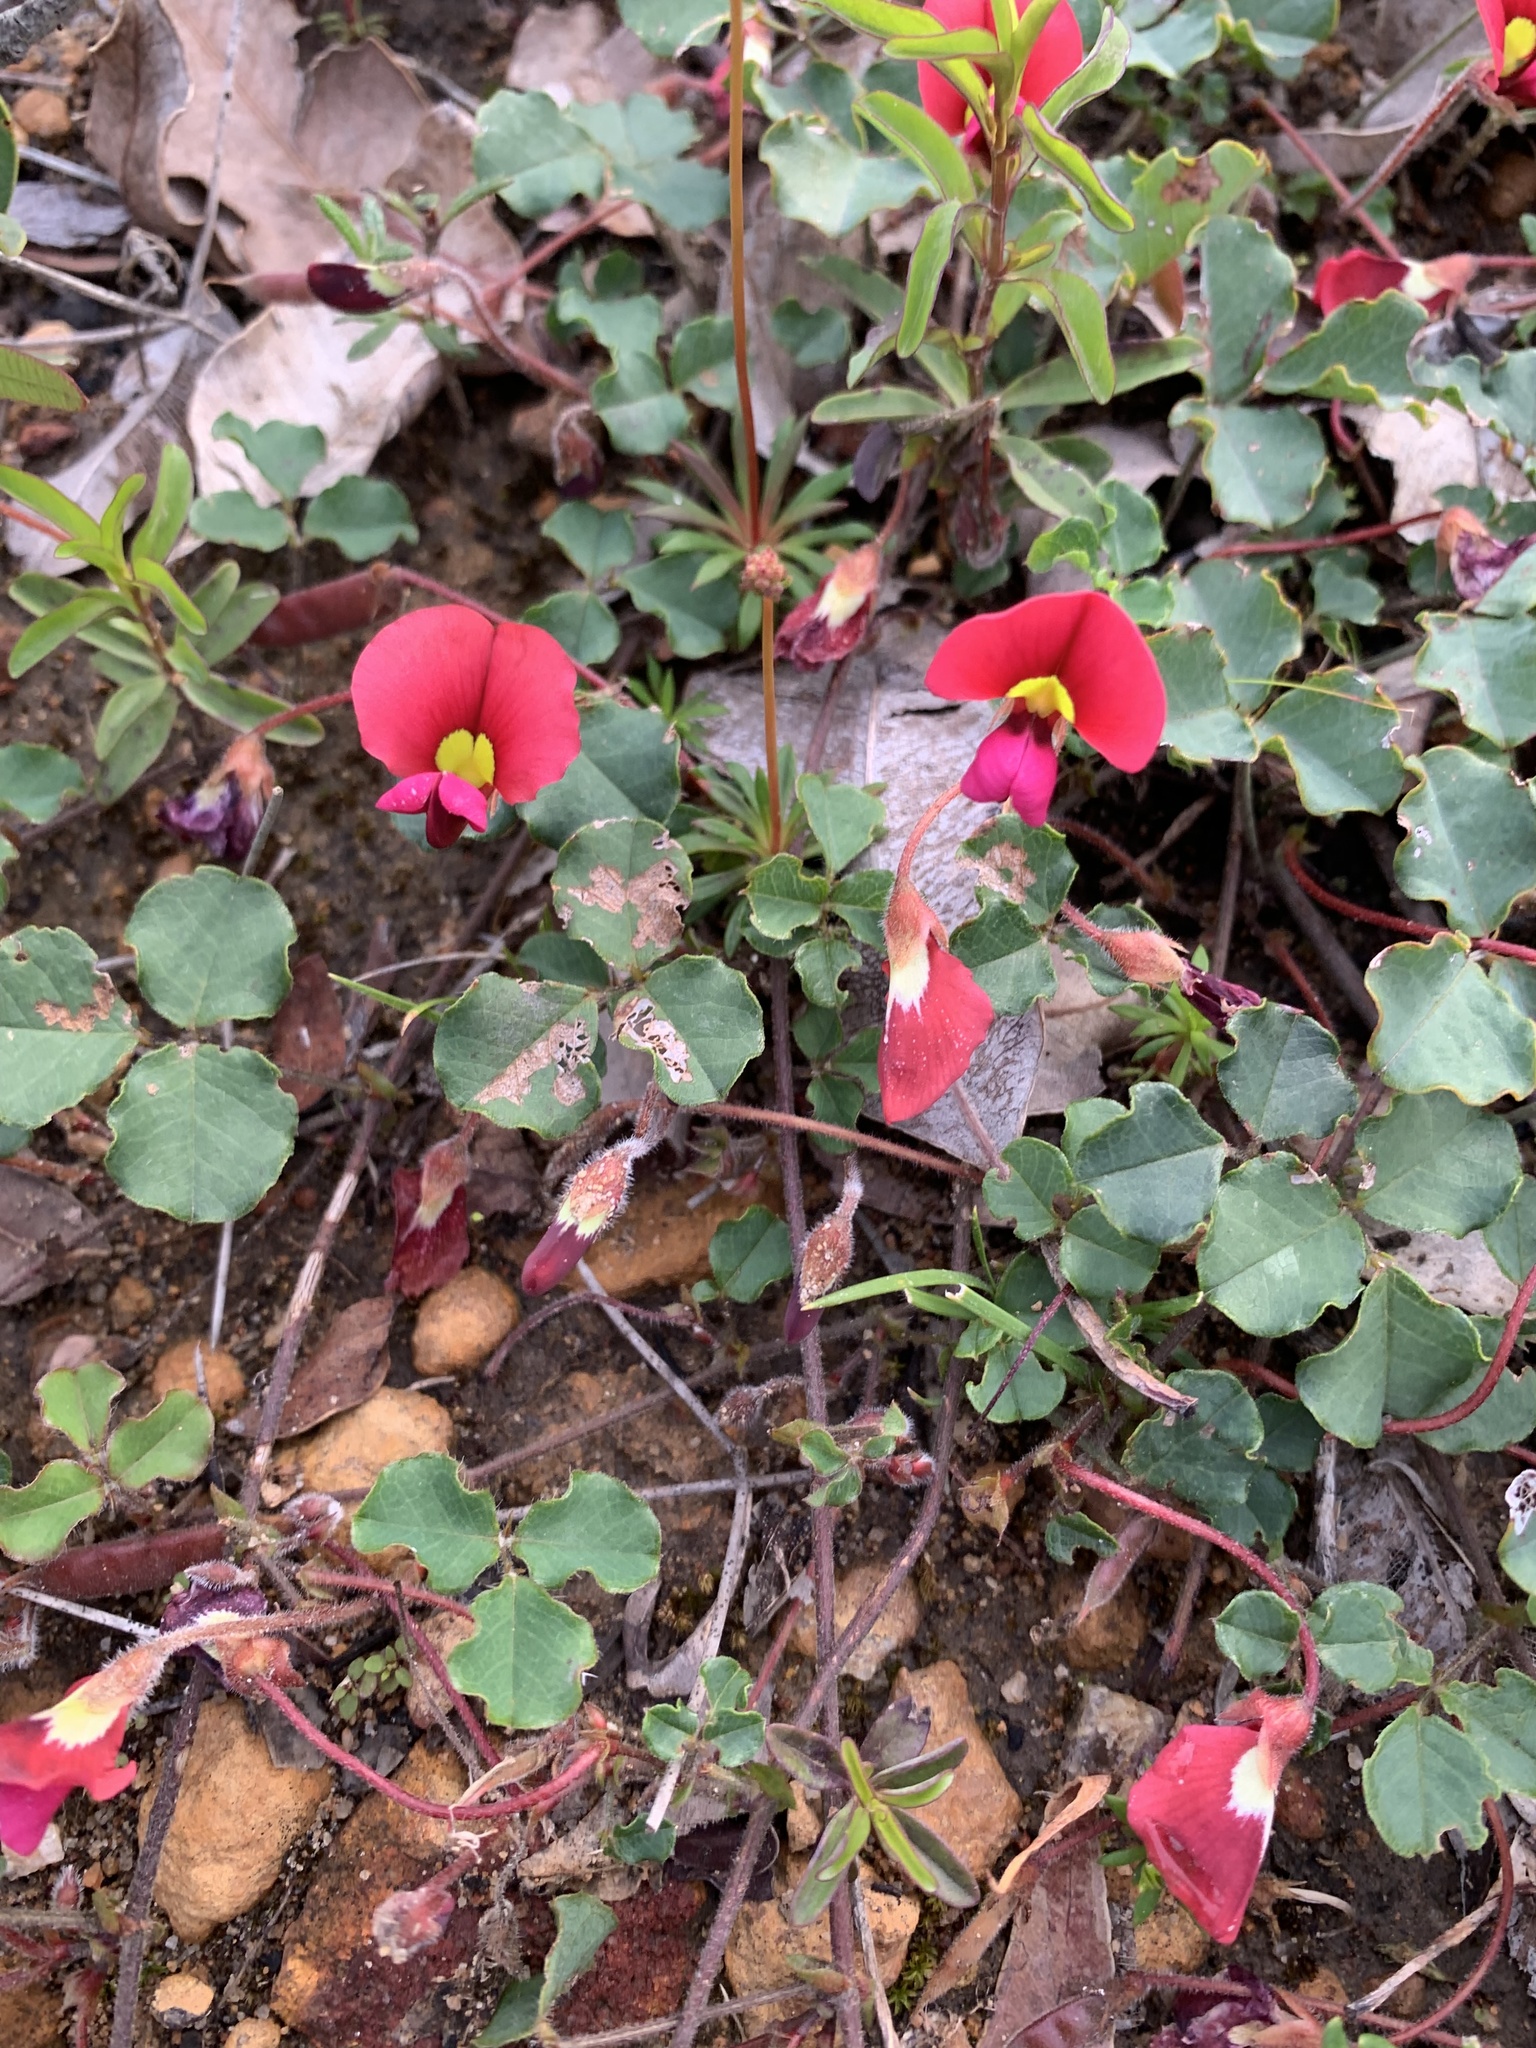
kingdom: Plantae
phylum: Tracheophyta
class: Magnoliopsida
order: Fabales
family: Fabaceae
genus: Kennedia
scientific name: Kennedia carinata
